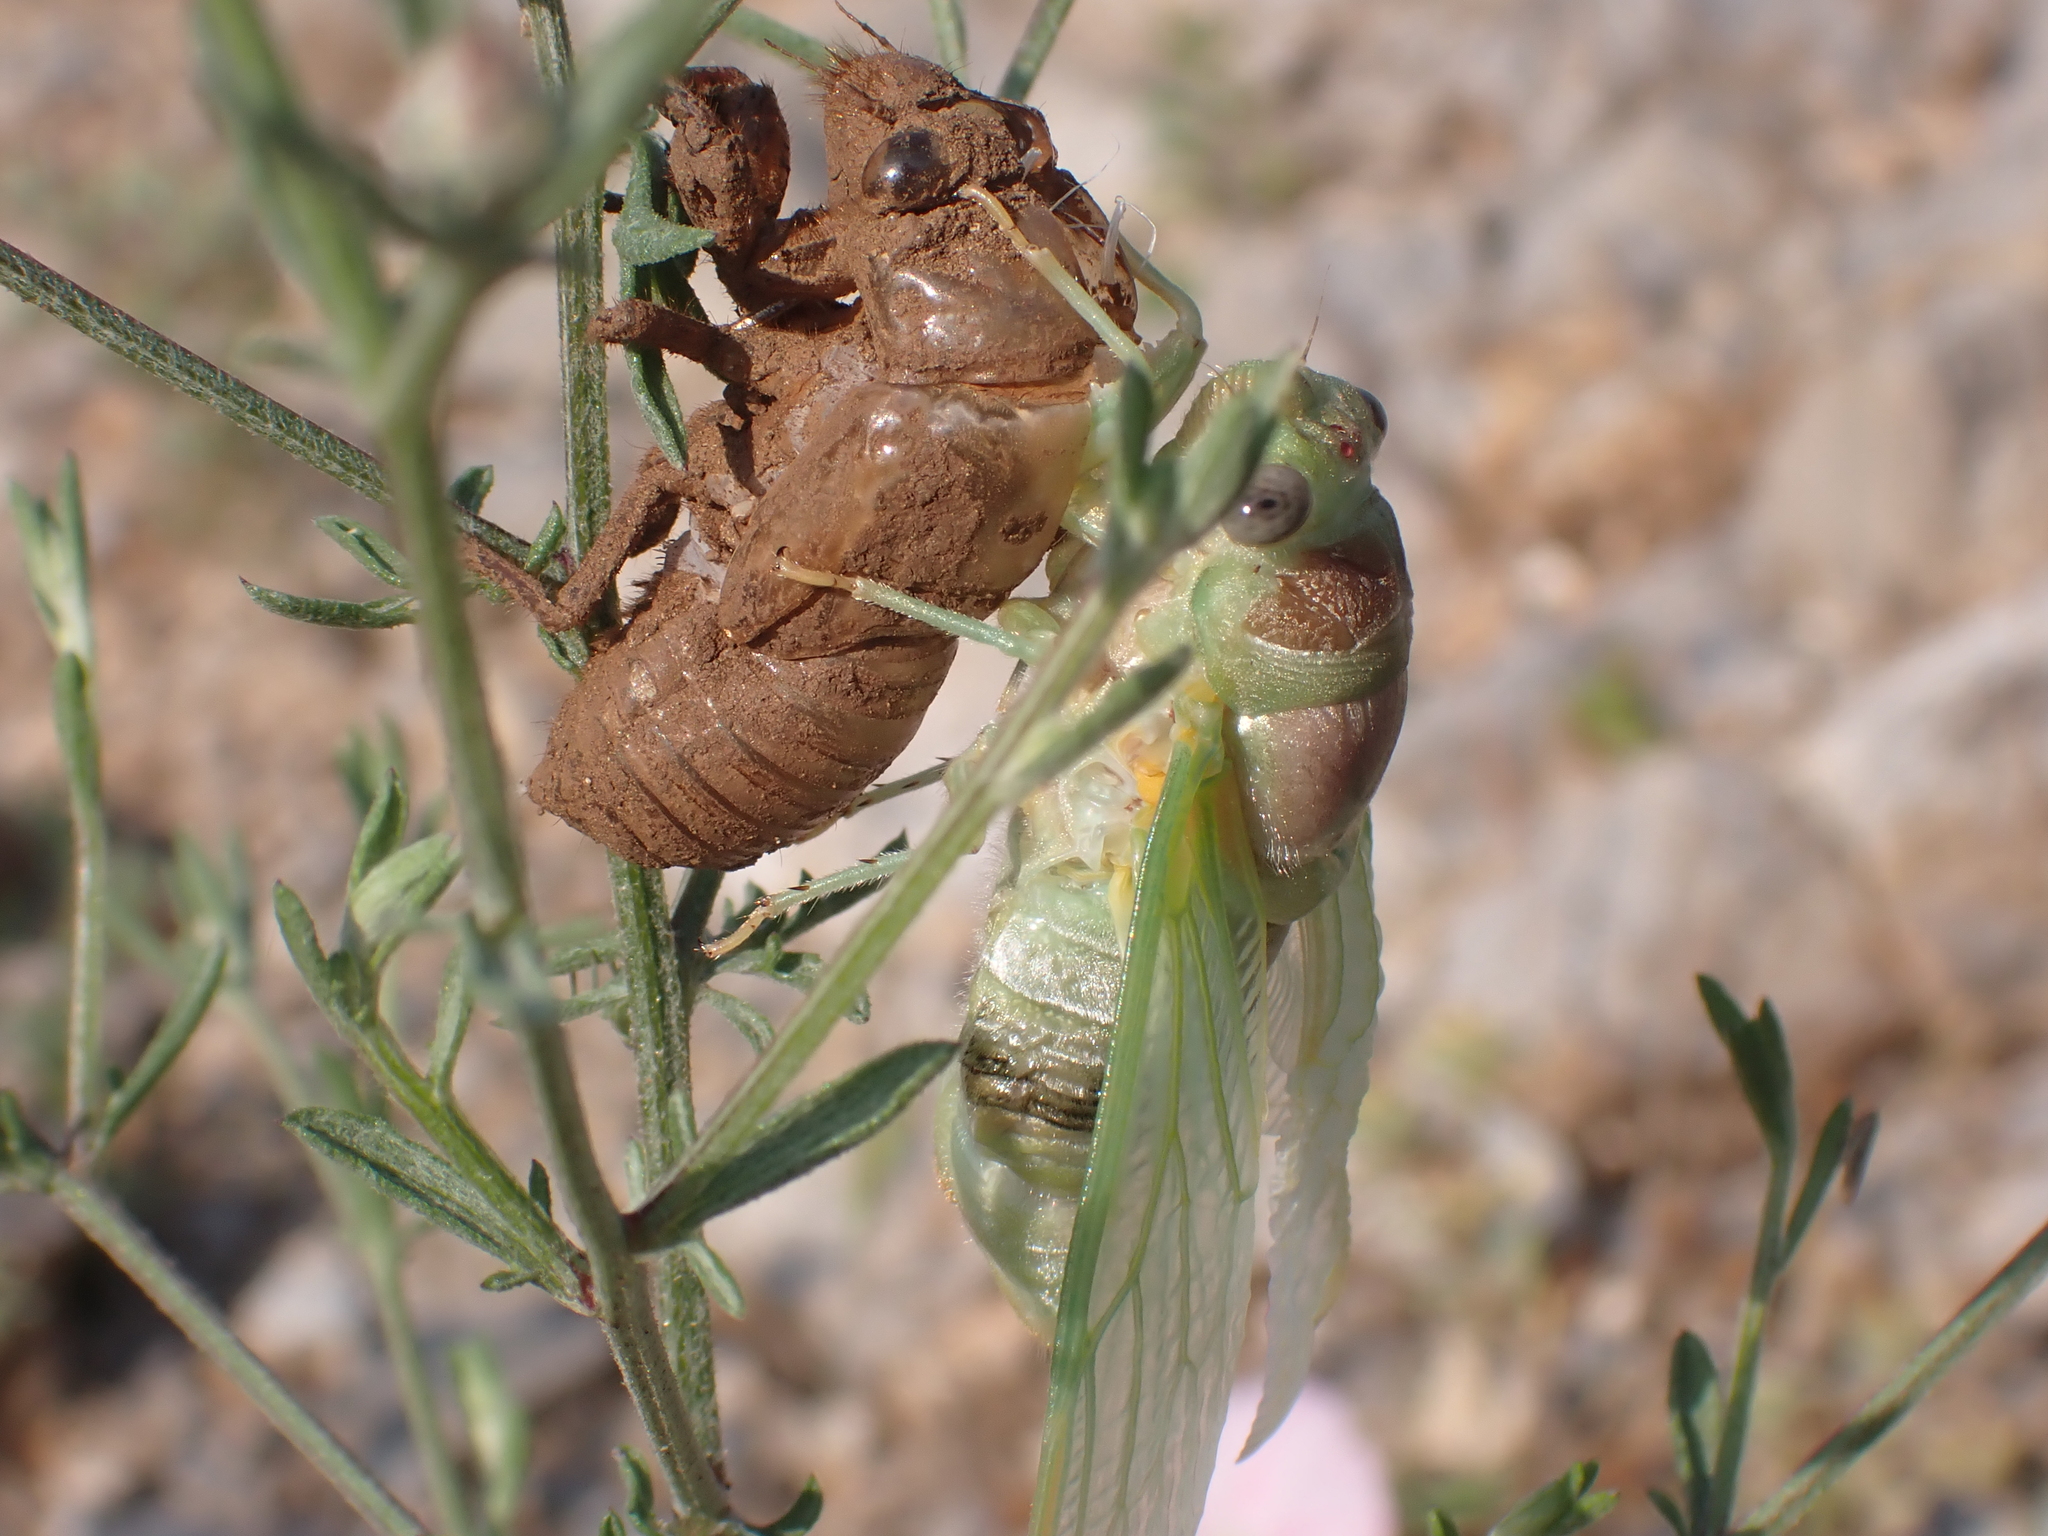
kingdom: Animalia
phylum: Arthropoda
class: Insecta
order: Hemiptera
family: Cicadidae
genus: Lyristes
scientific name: Lyristes plebejus
